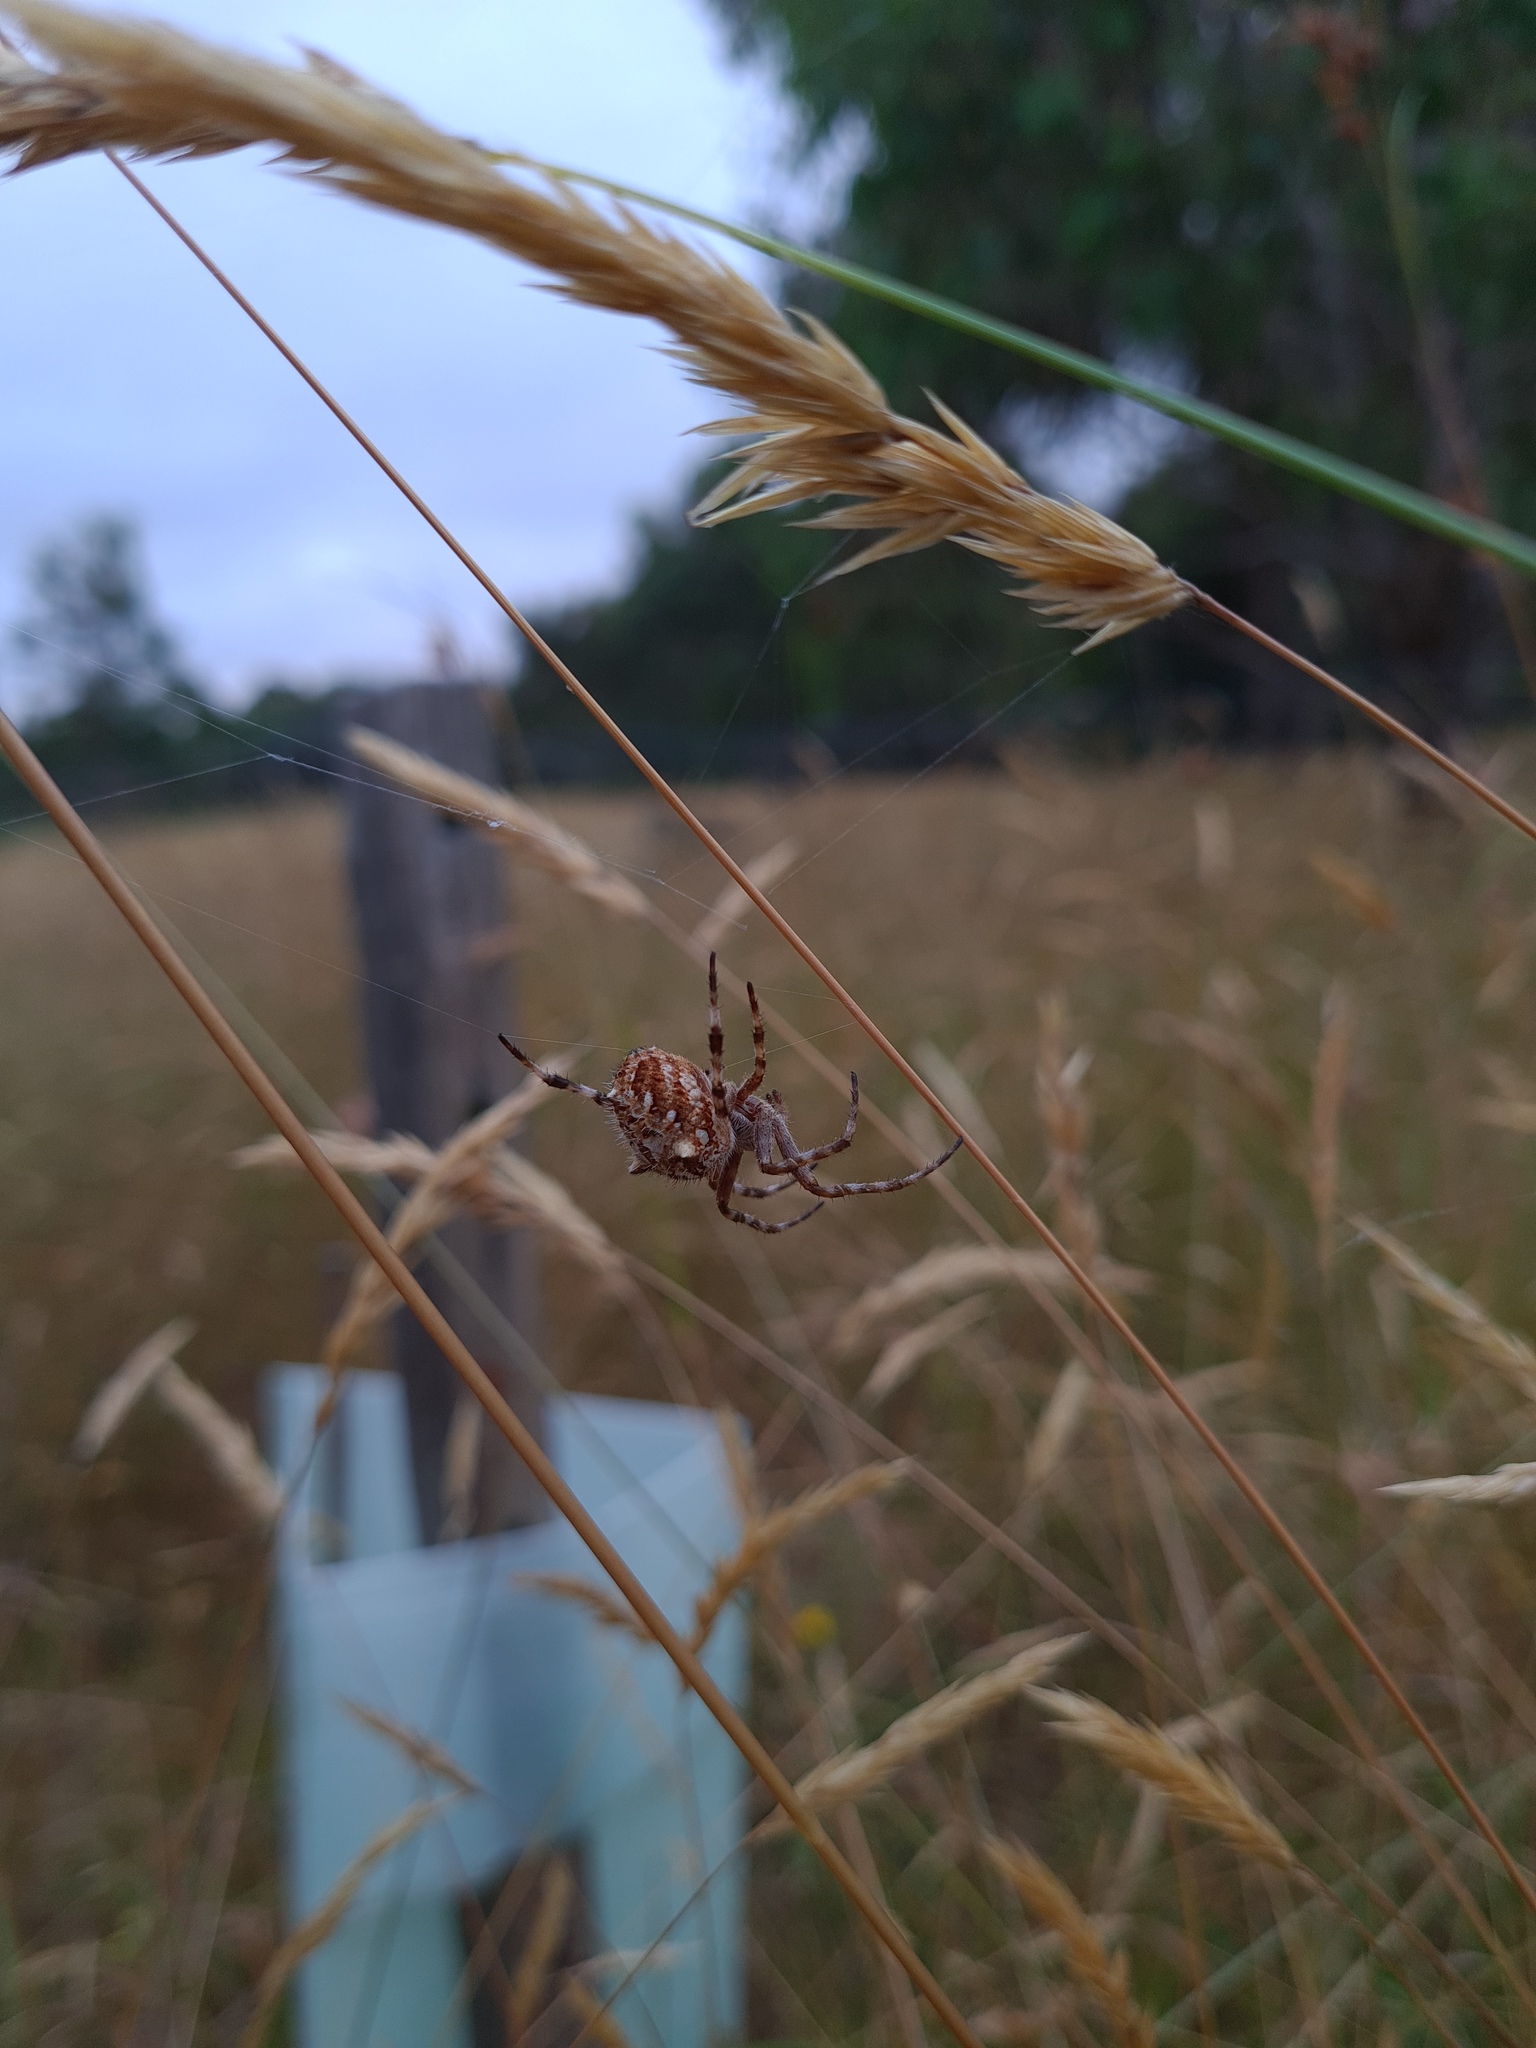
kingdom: Animalia
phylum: Arthropoda
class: Arachnida
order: Araneae
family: Araneidae
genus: Backobourkia
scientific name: Backobourkia
